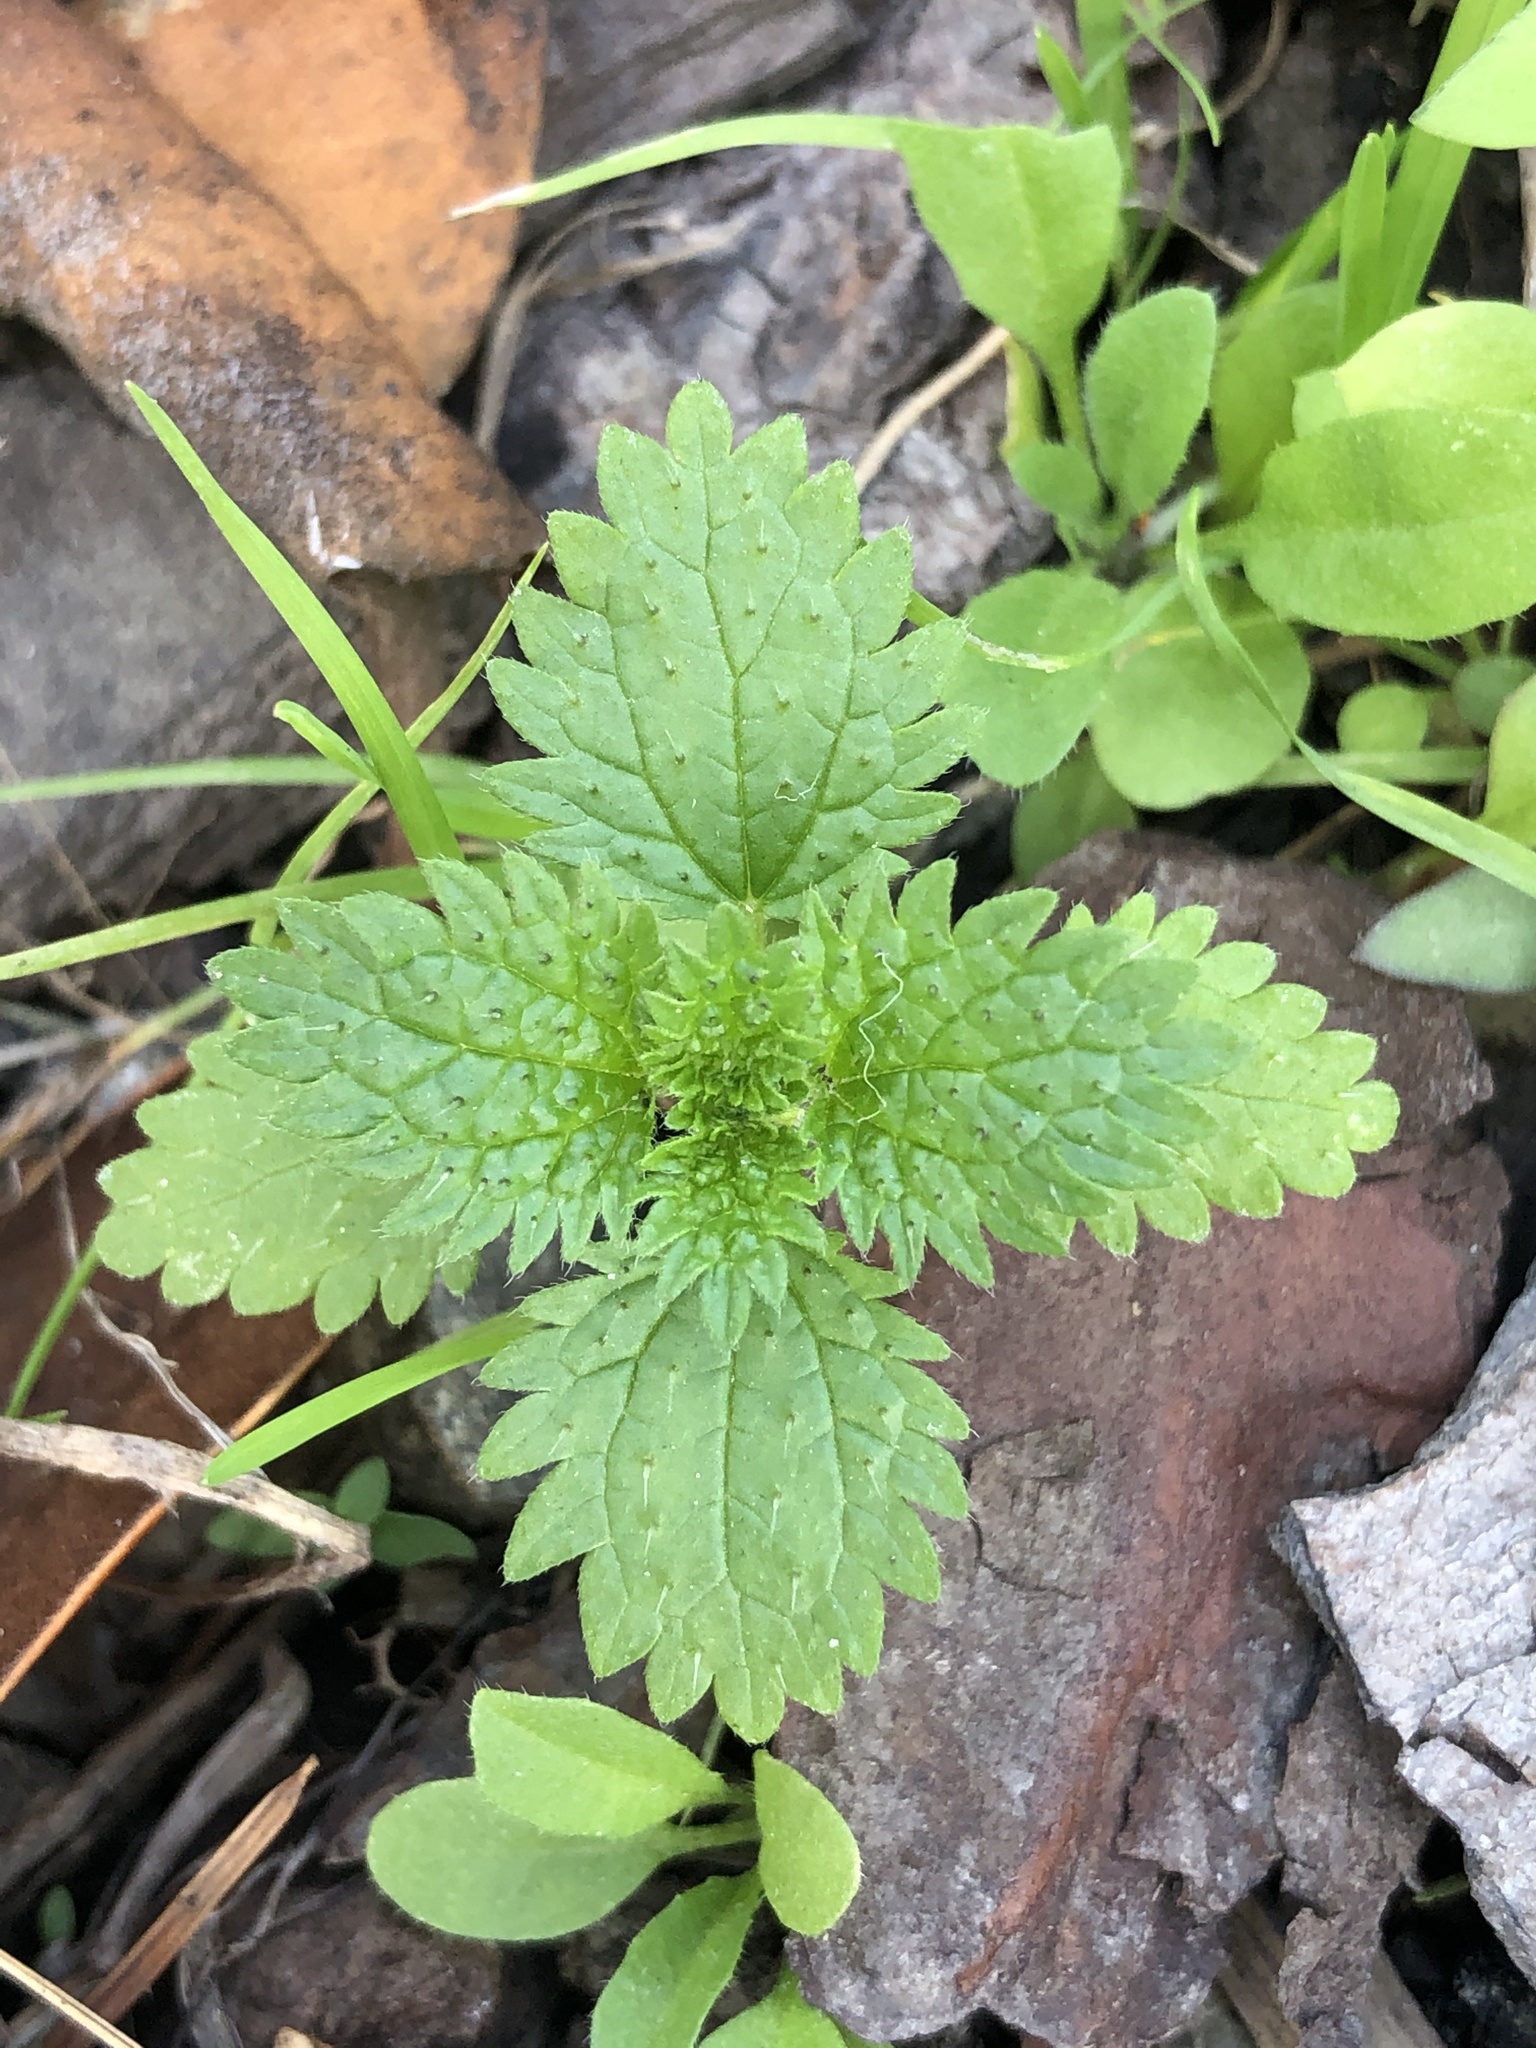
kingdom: Plantae
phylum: Tracheophyta
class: Magnoliopsida
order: Rosales
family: Urticaceae
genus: Urtica
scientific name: Urtica urens
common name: Dwarf nettle
